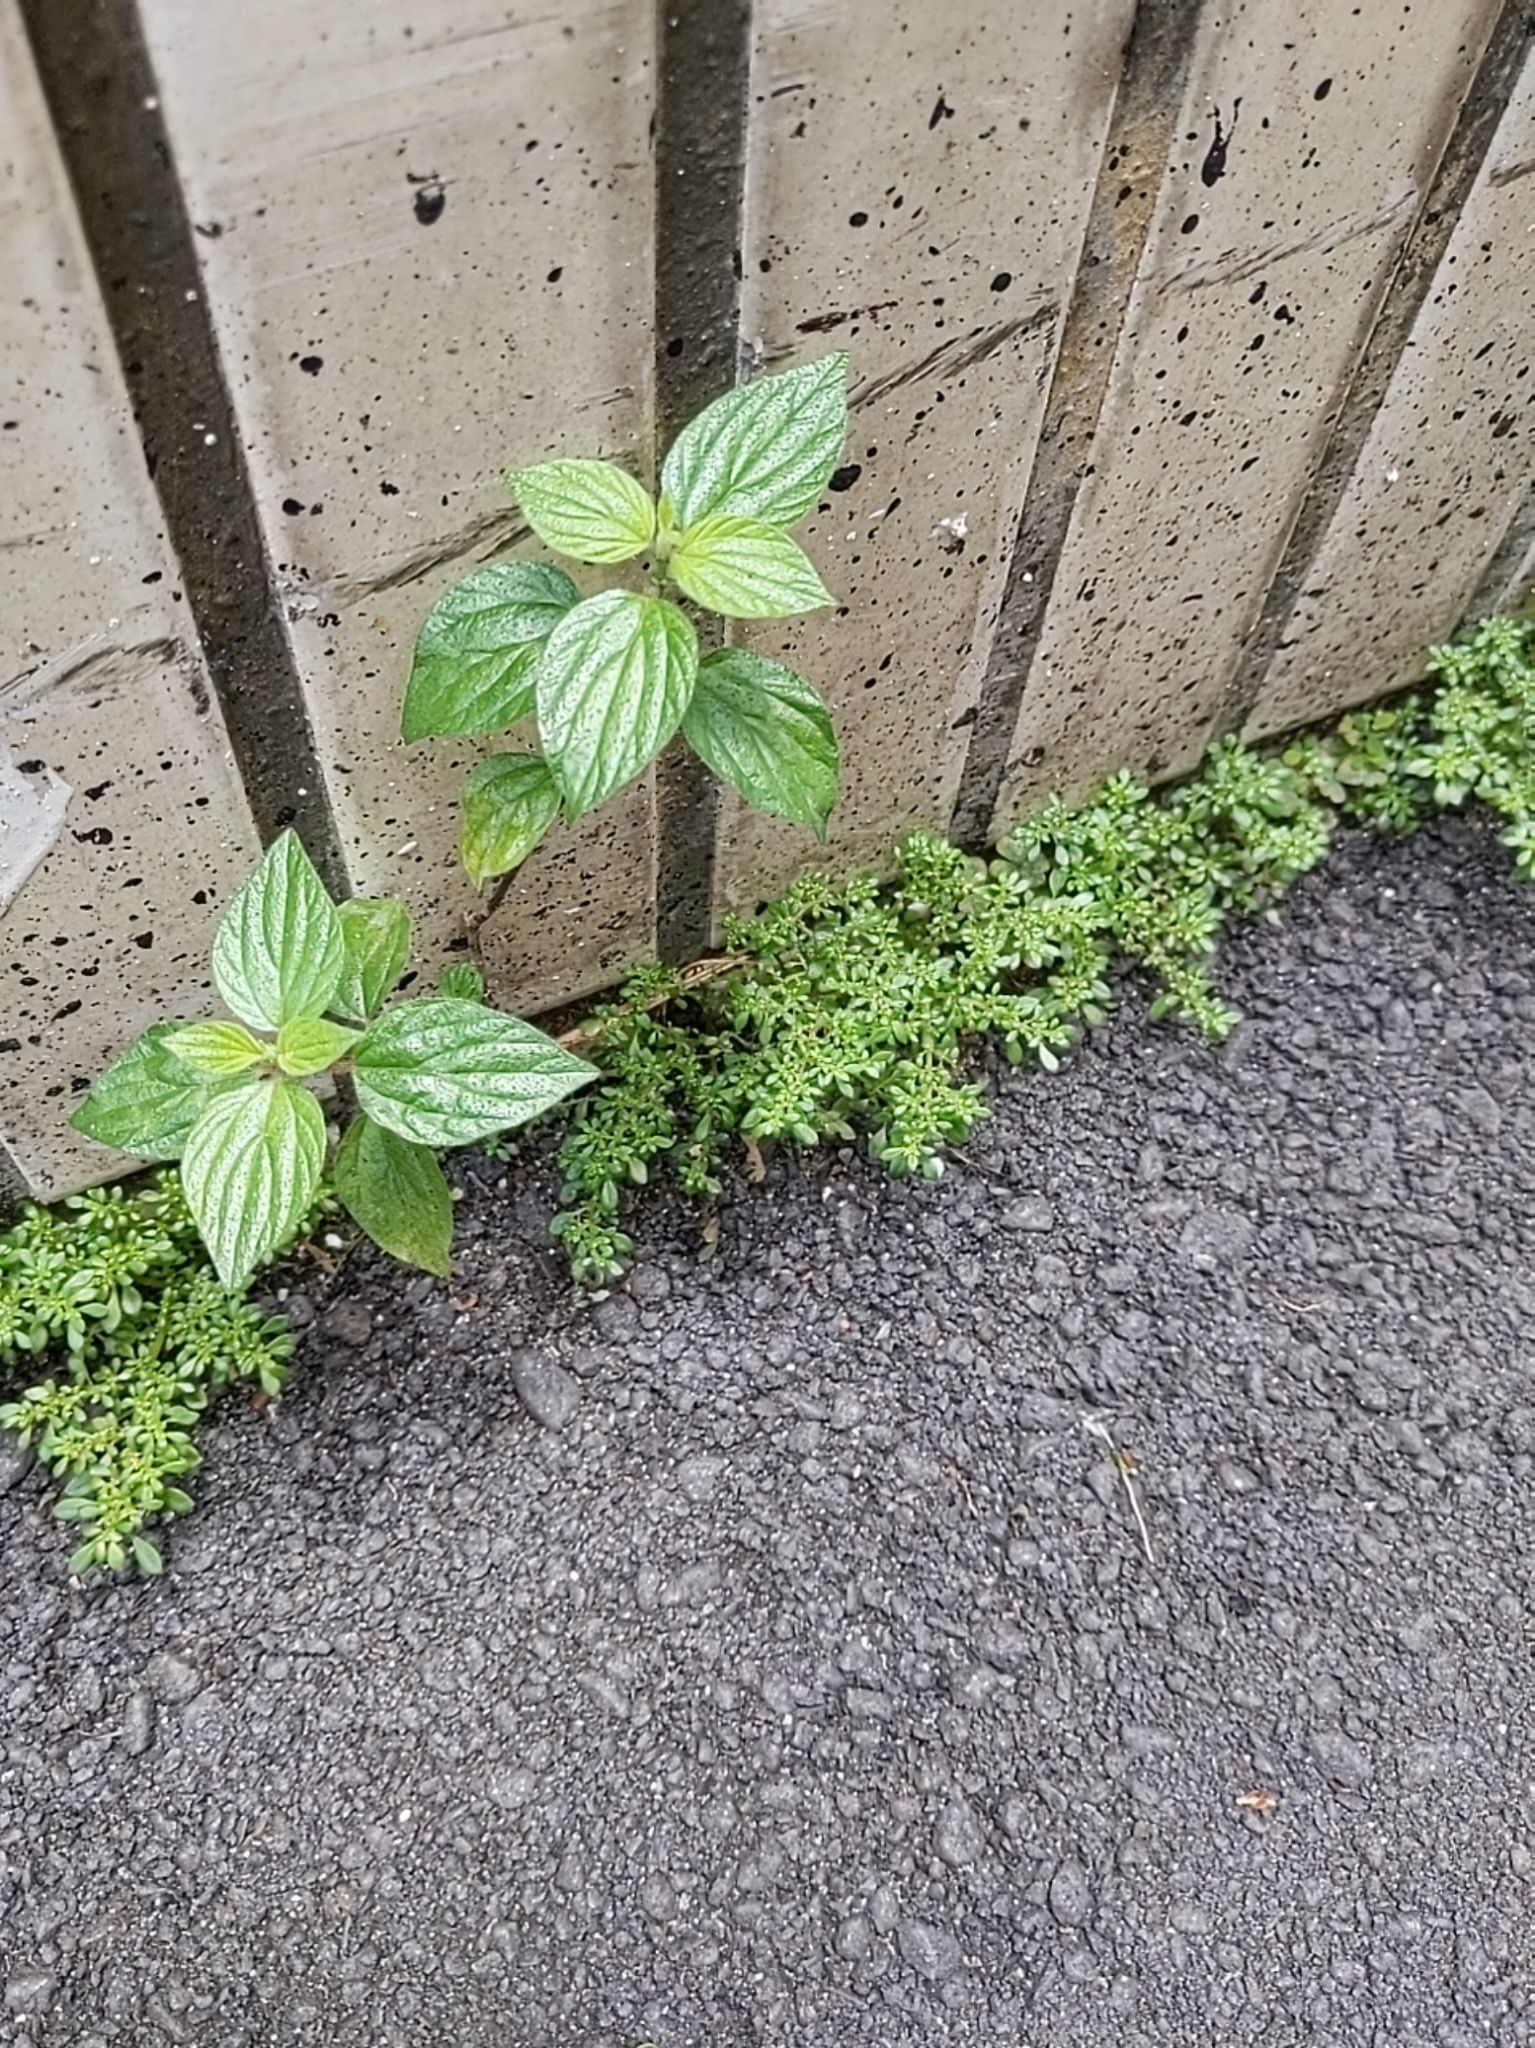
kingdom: Plantae
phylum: Tracheophyta
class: Magnoliopsida
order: Rosales
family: Urticaceae
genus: Pouzolzia
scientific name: Pouzolzia zeylanica
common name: Graceful pouzolzsbush
